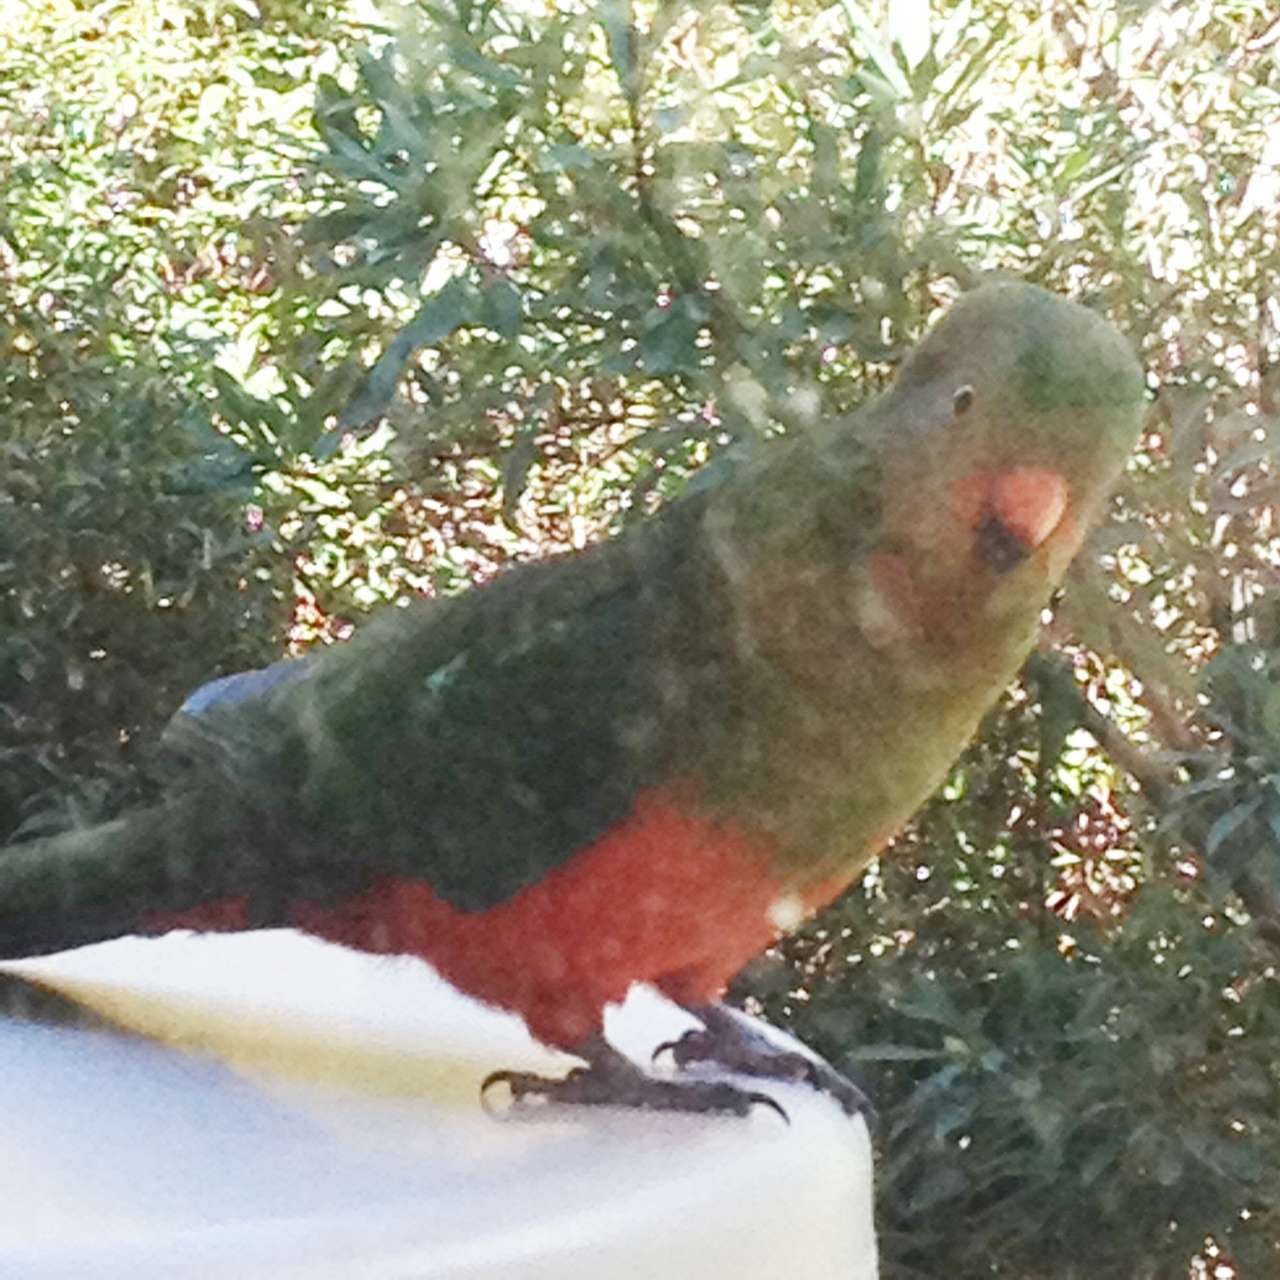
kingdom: Animalia
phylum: Chordata
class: Aves
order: Psittaciformes
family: Psittacidae
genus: Alisterus
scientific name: Alisterus scapularis
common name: Australian king parrot
